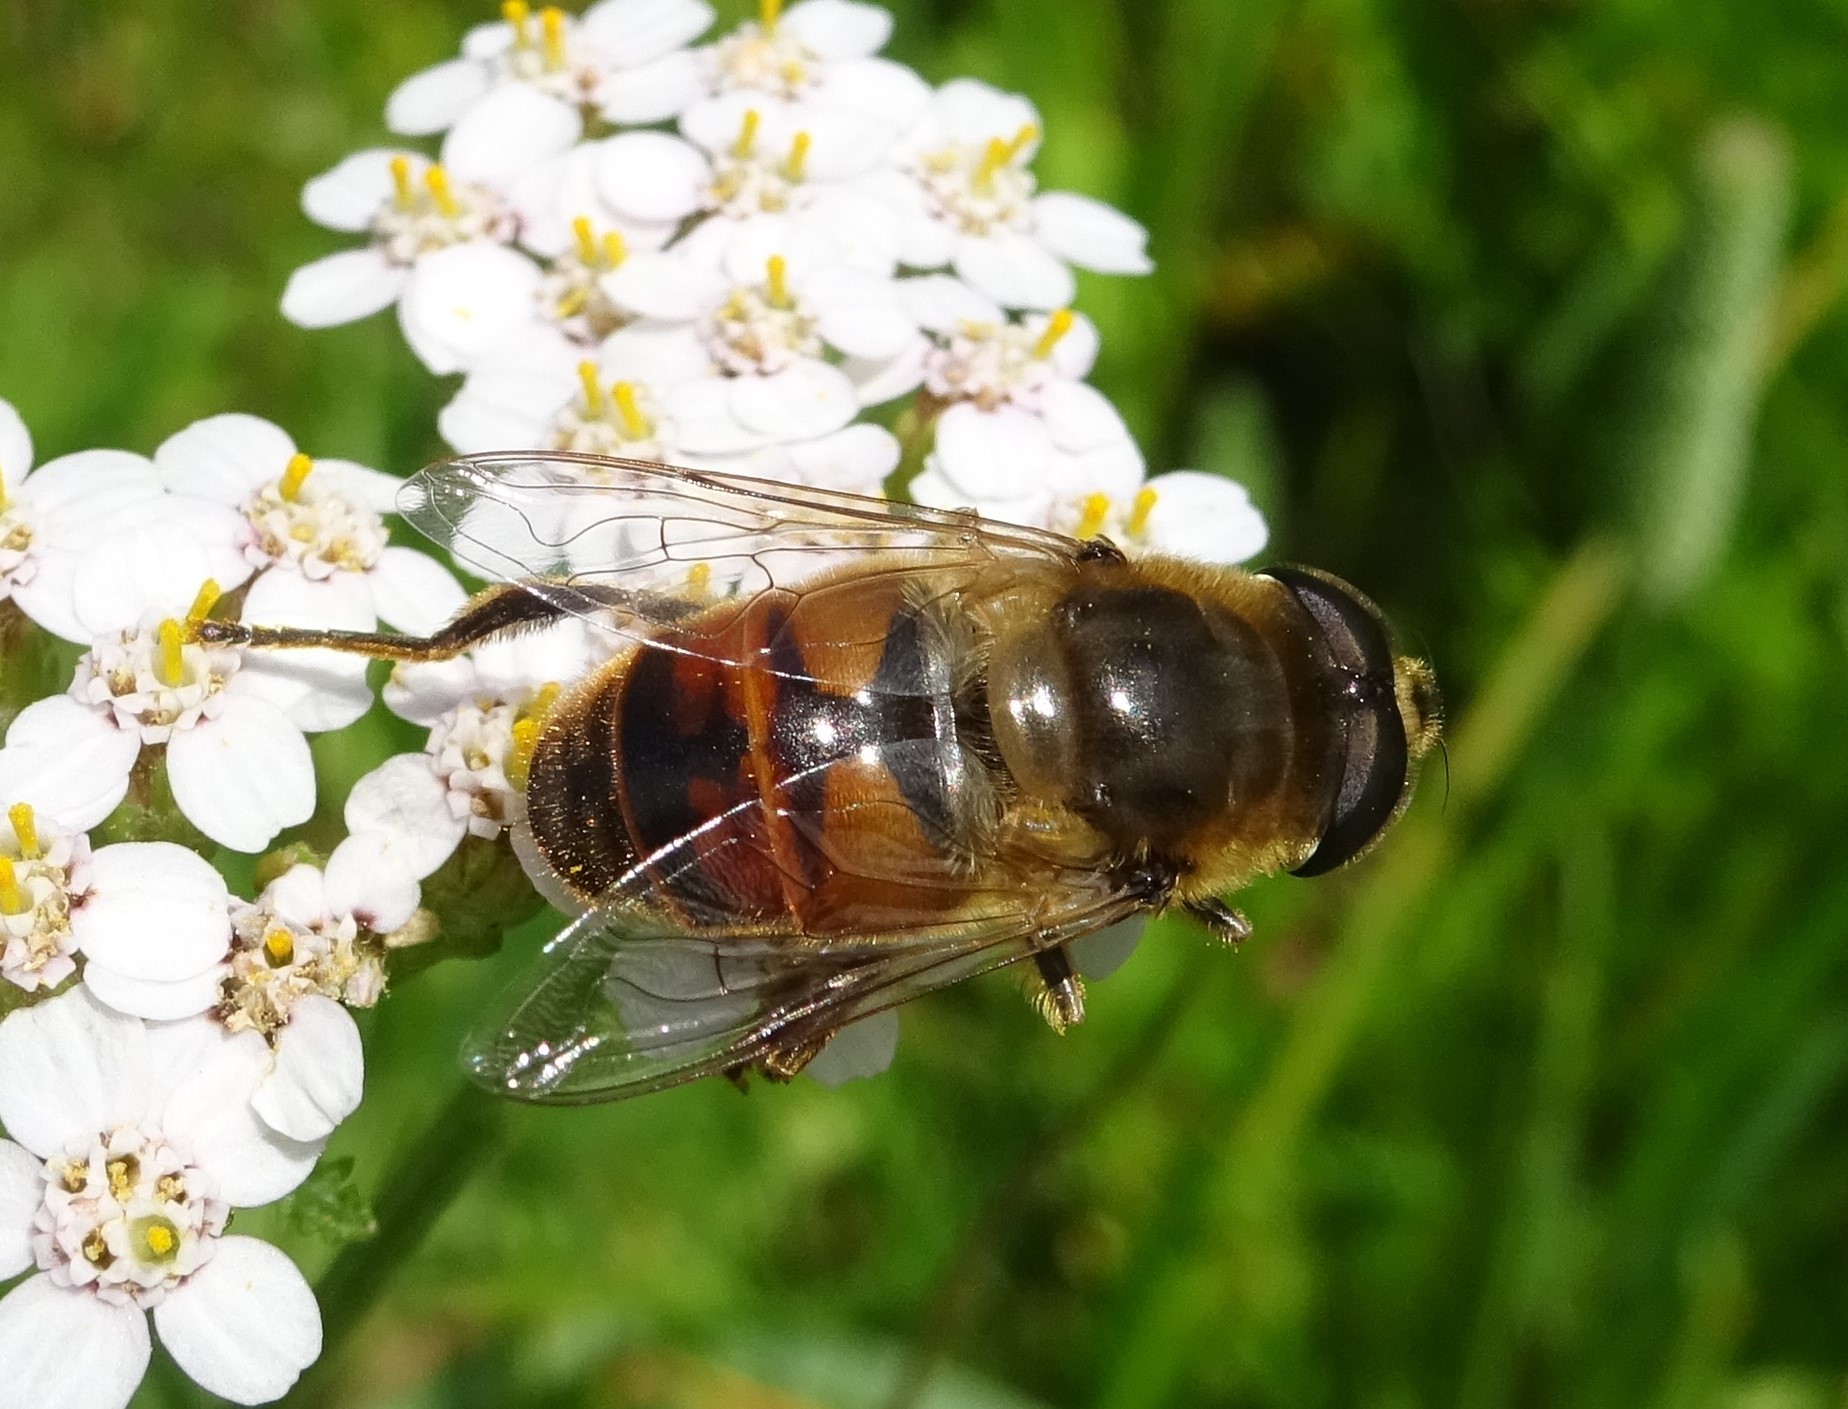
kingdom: Animalia
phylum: Arthropoda
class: Insecta
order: Diptera
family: Syrphidae
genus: Eristalis
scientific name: Eristalis tenax
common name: Drone fly
